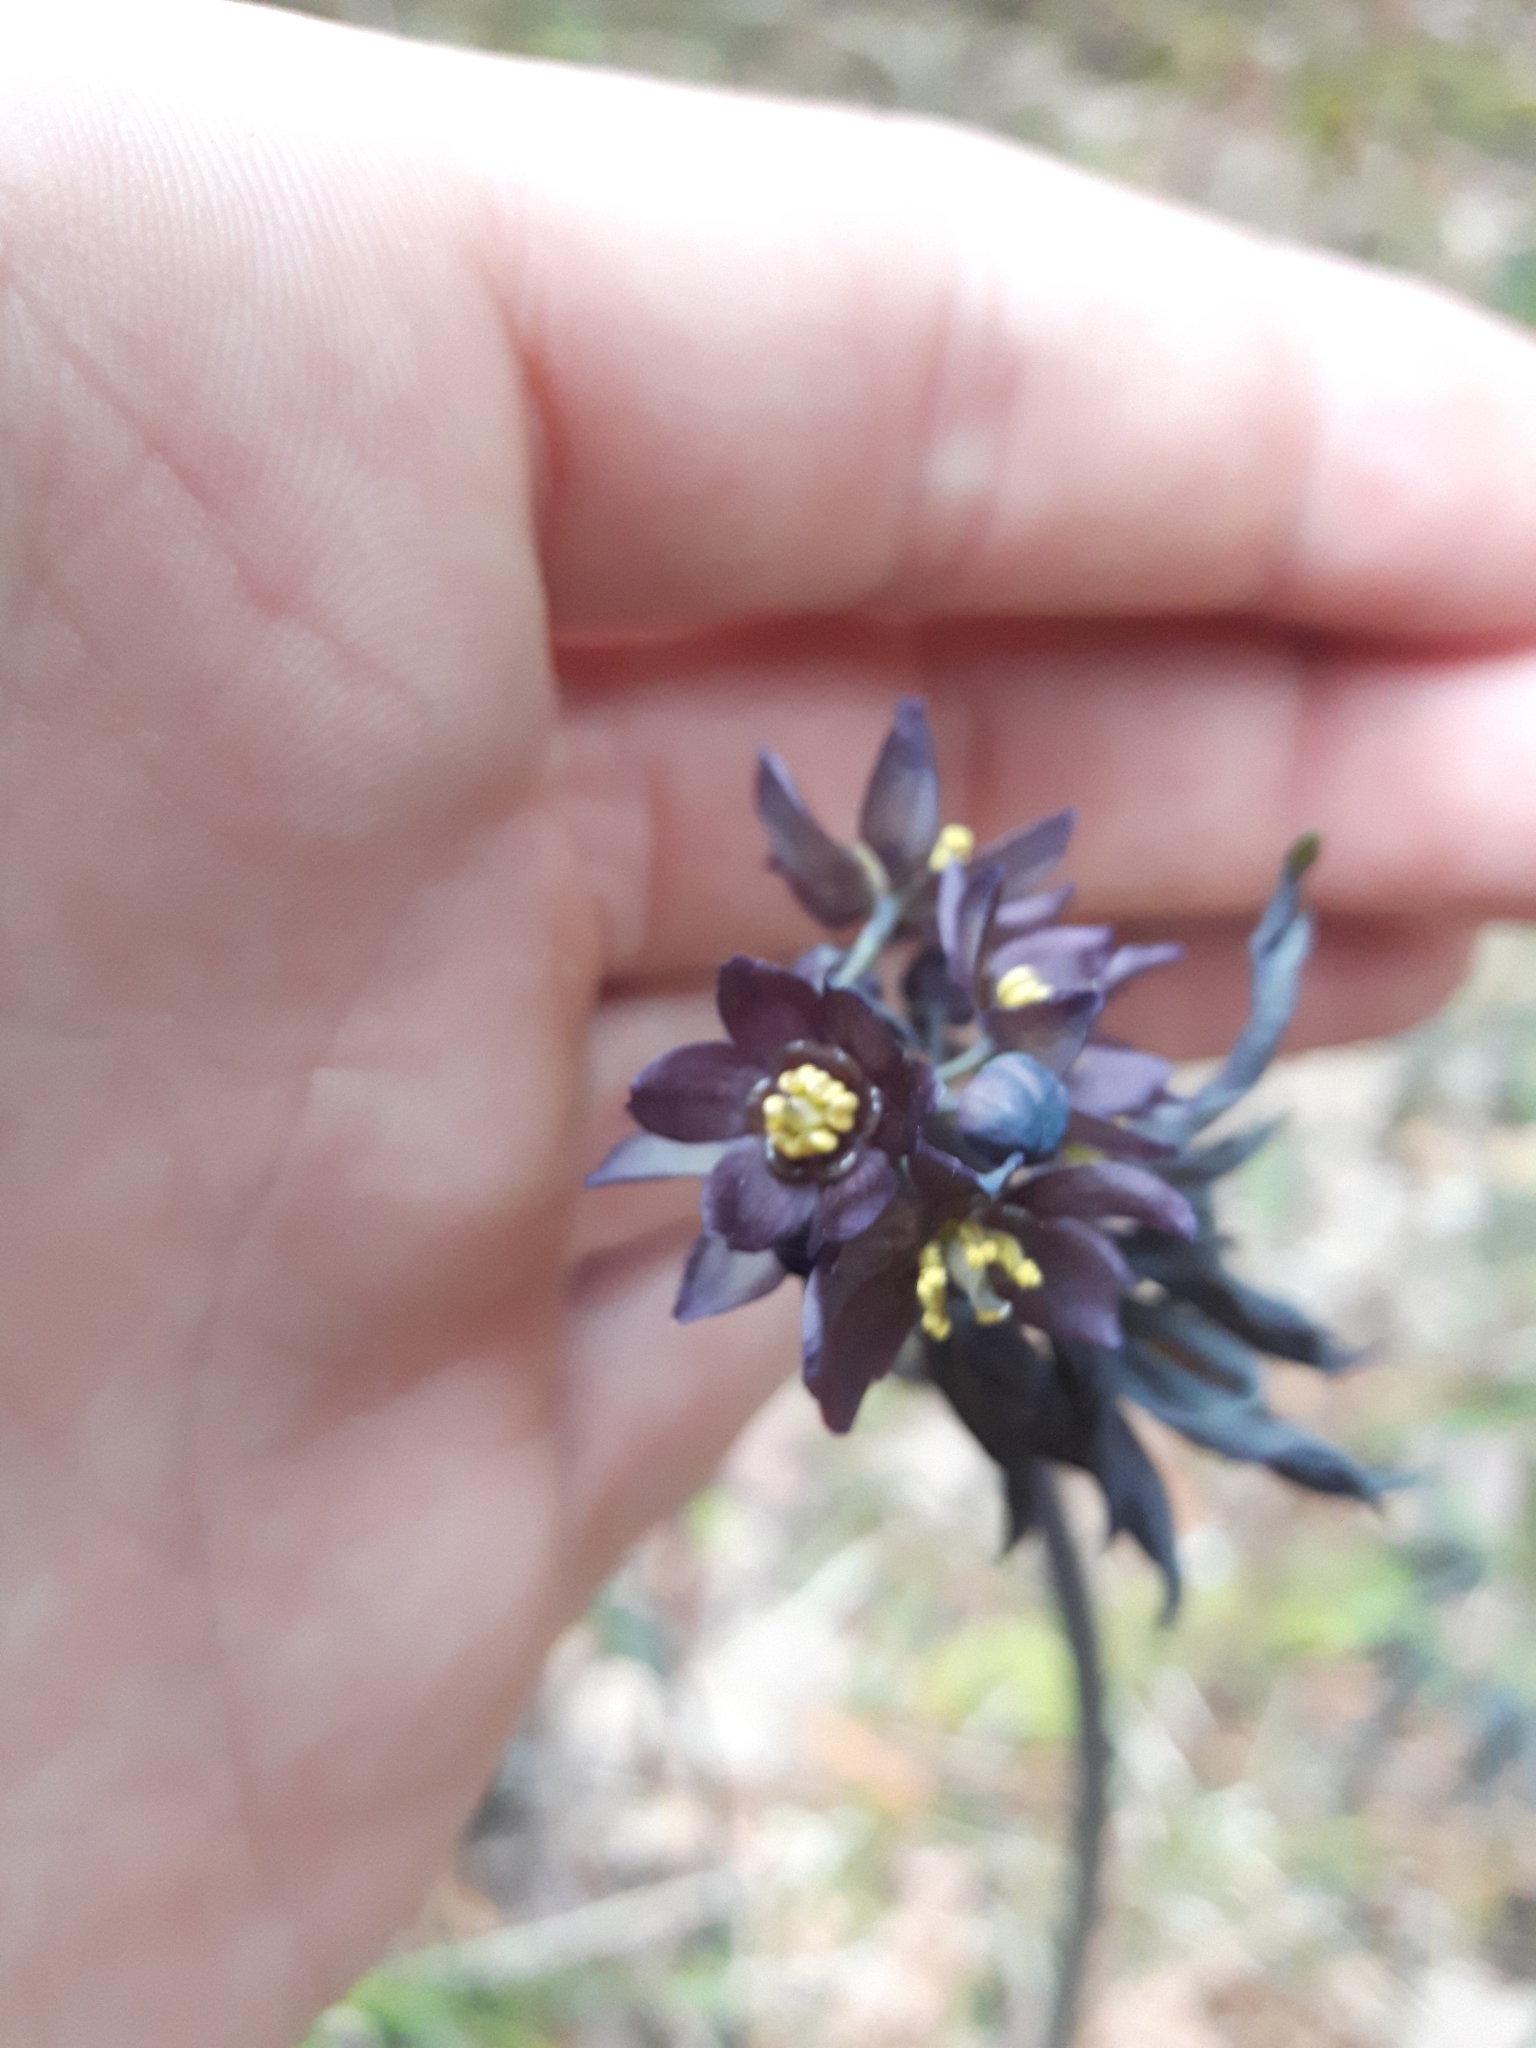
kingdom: Plantae
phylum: Tracheophyta
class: Magnoliopsida
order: Ranunculales
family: Berberidaceae
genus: Caulophyllum
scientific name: Caulophyllum giganteum
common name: Blue cohosh
